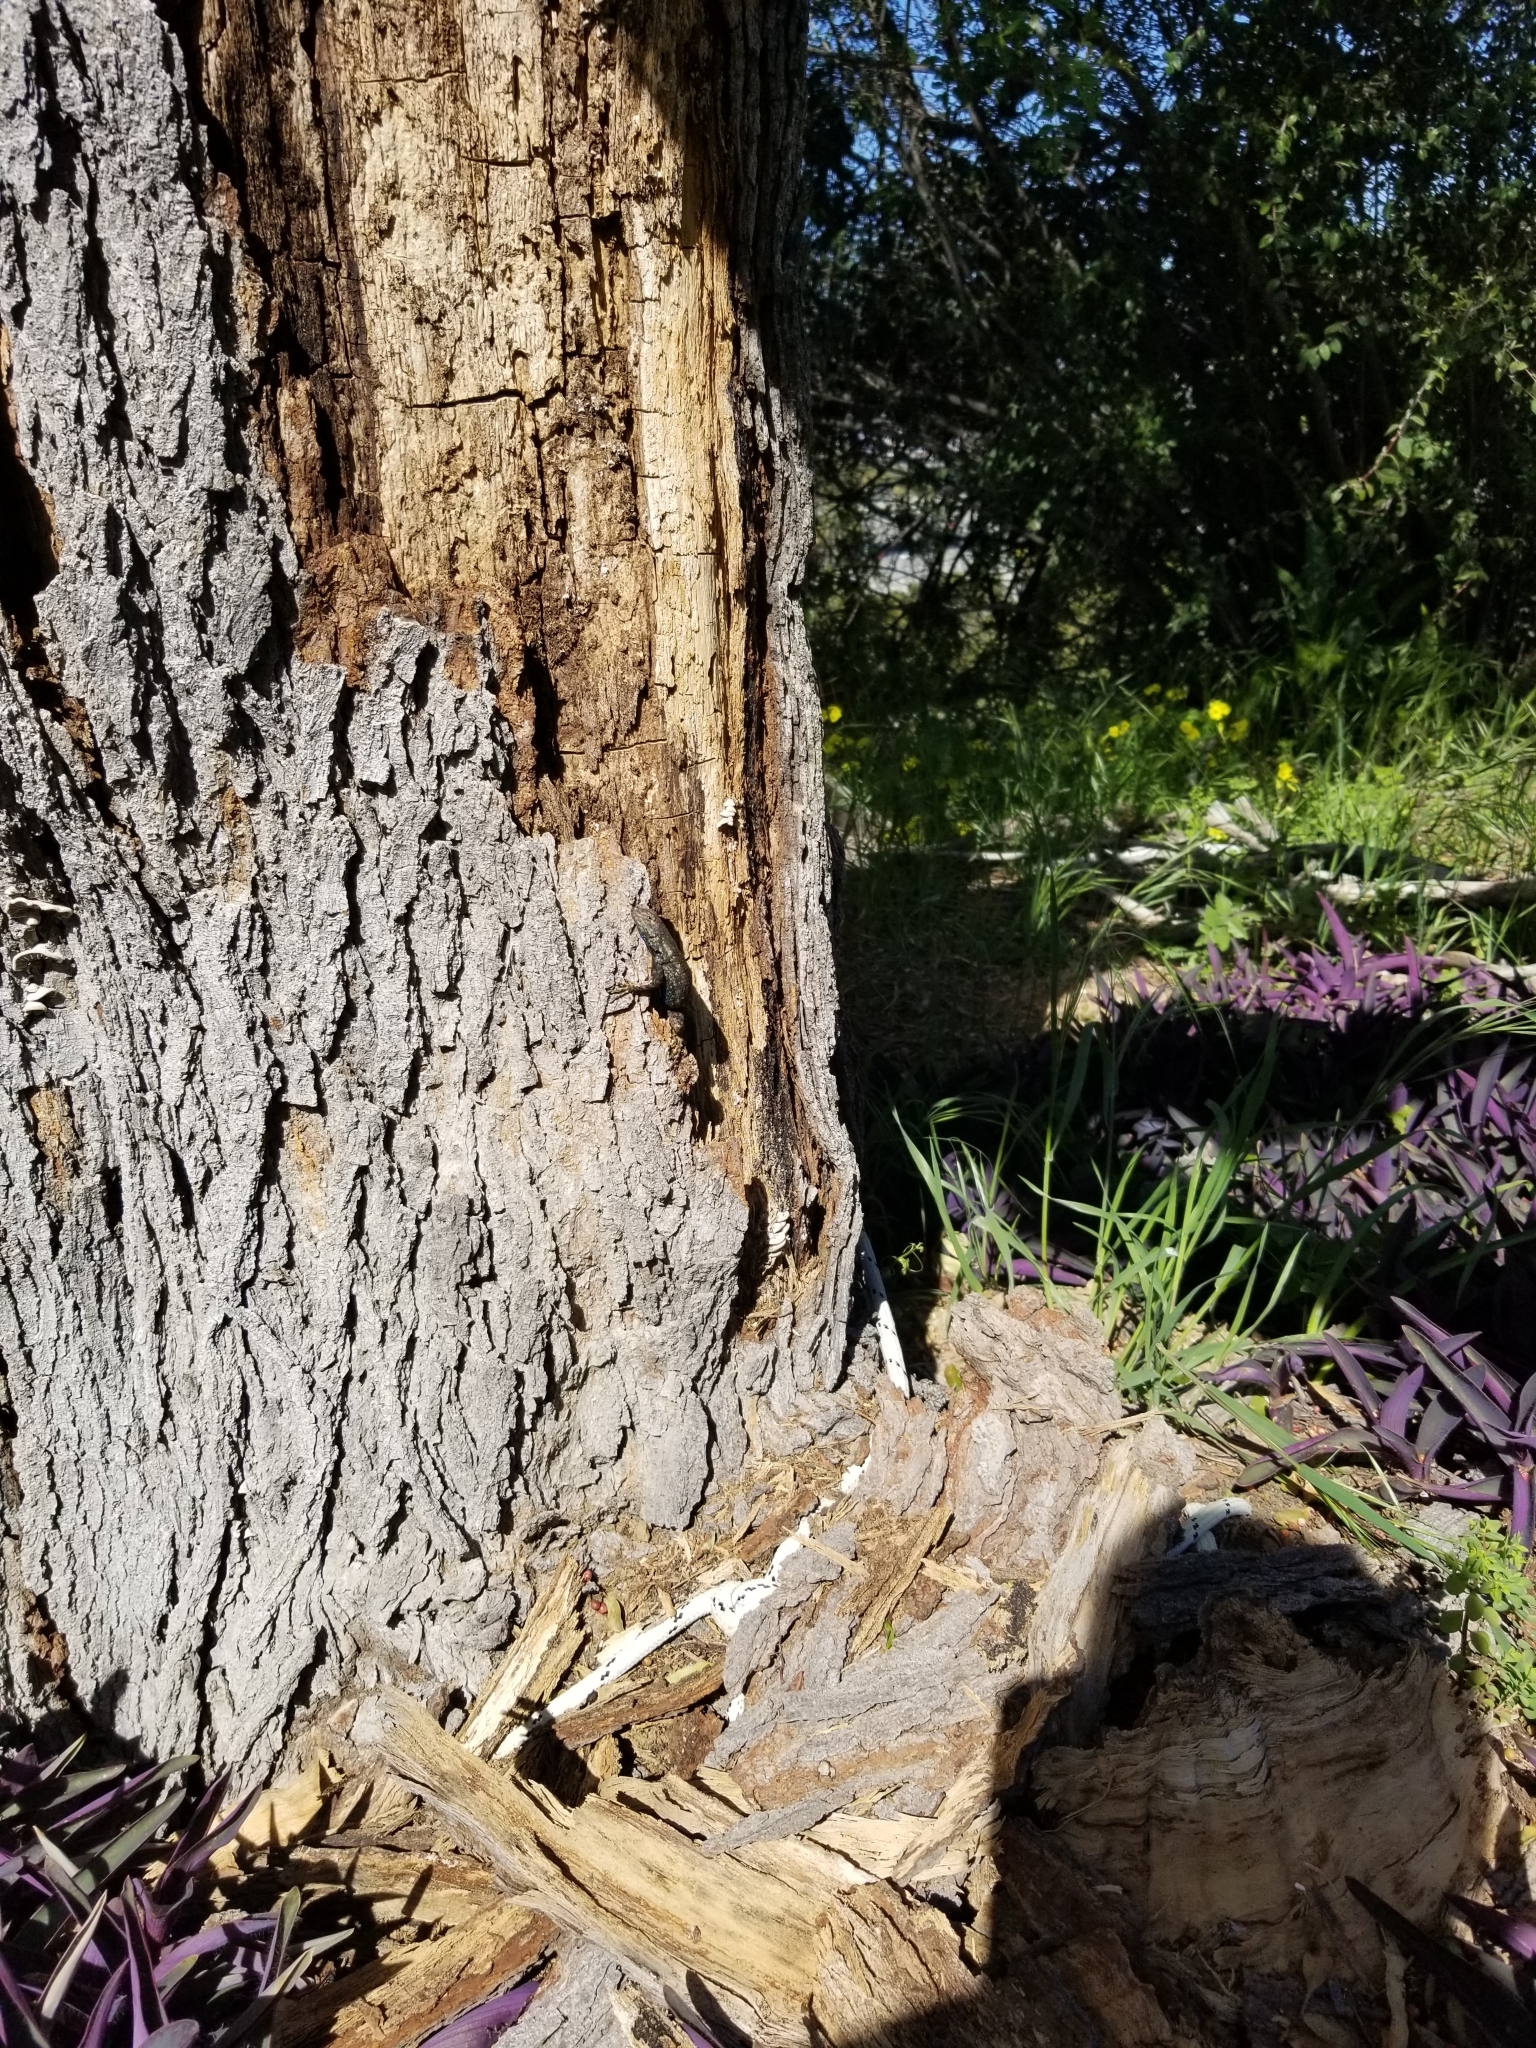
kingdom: Animalia
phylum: Chordata
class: Squamata
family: Phrynosomatidae
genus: Sceloporus
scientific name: Sceloporus occidentalis
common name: Western fence lizard
